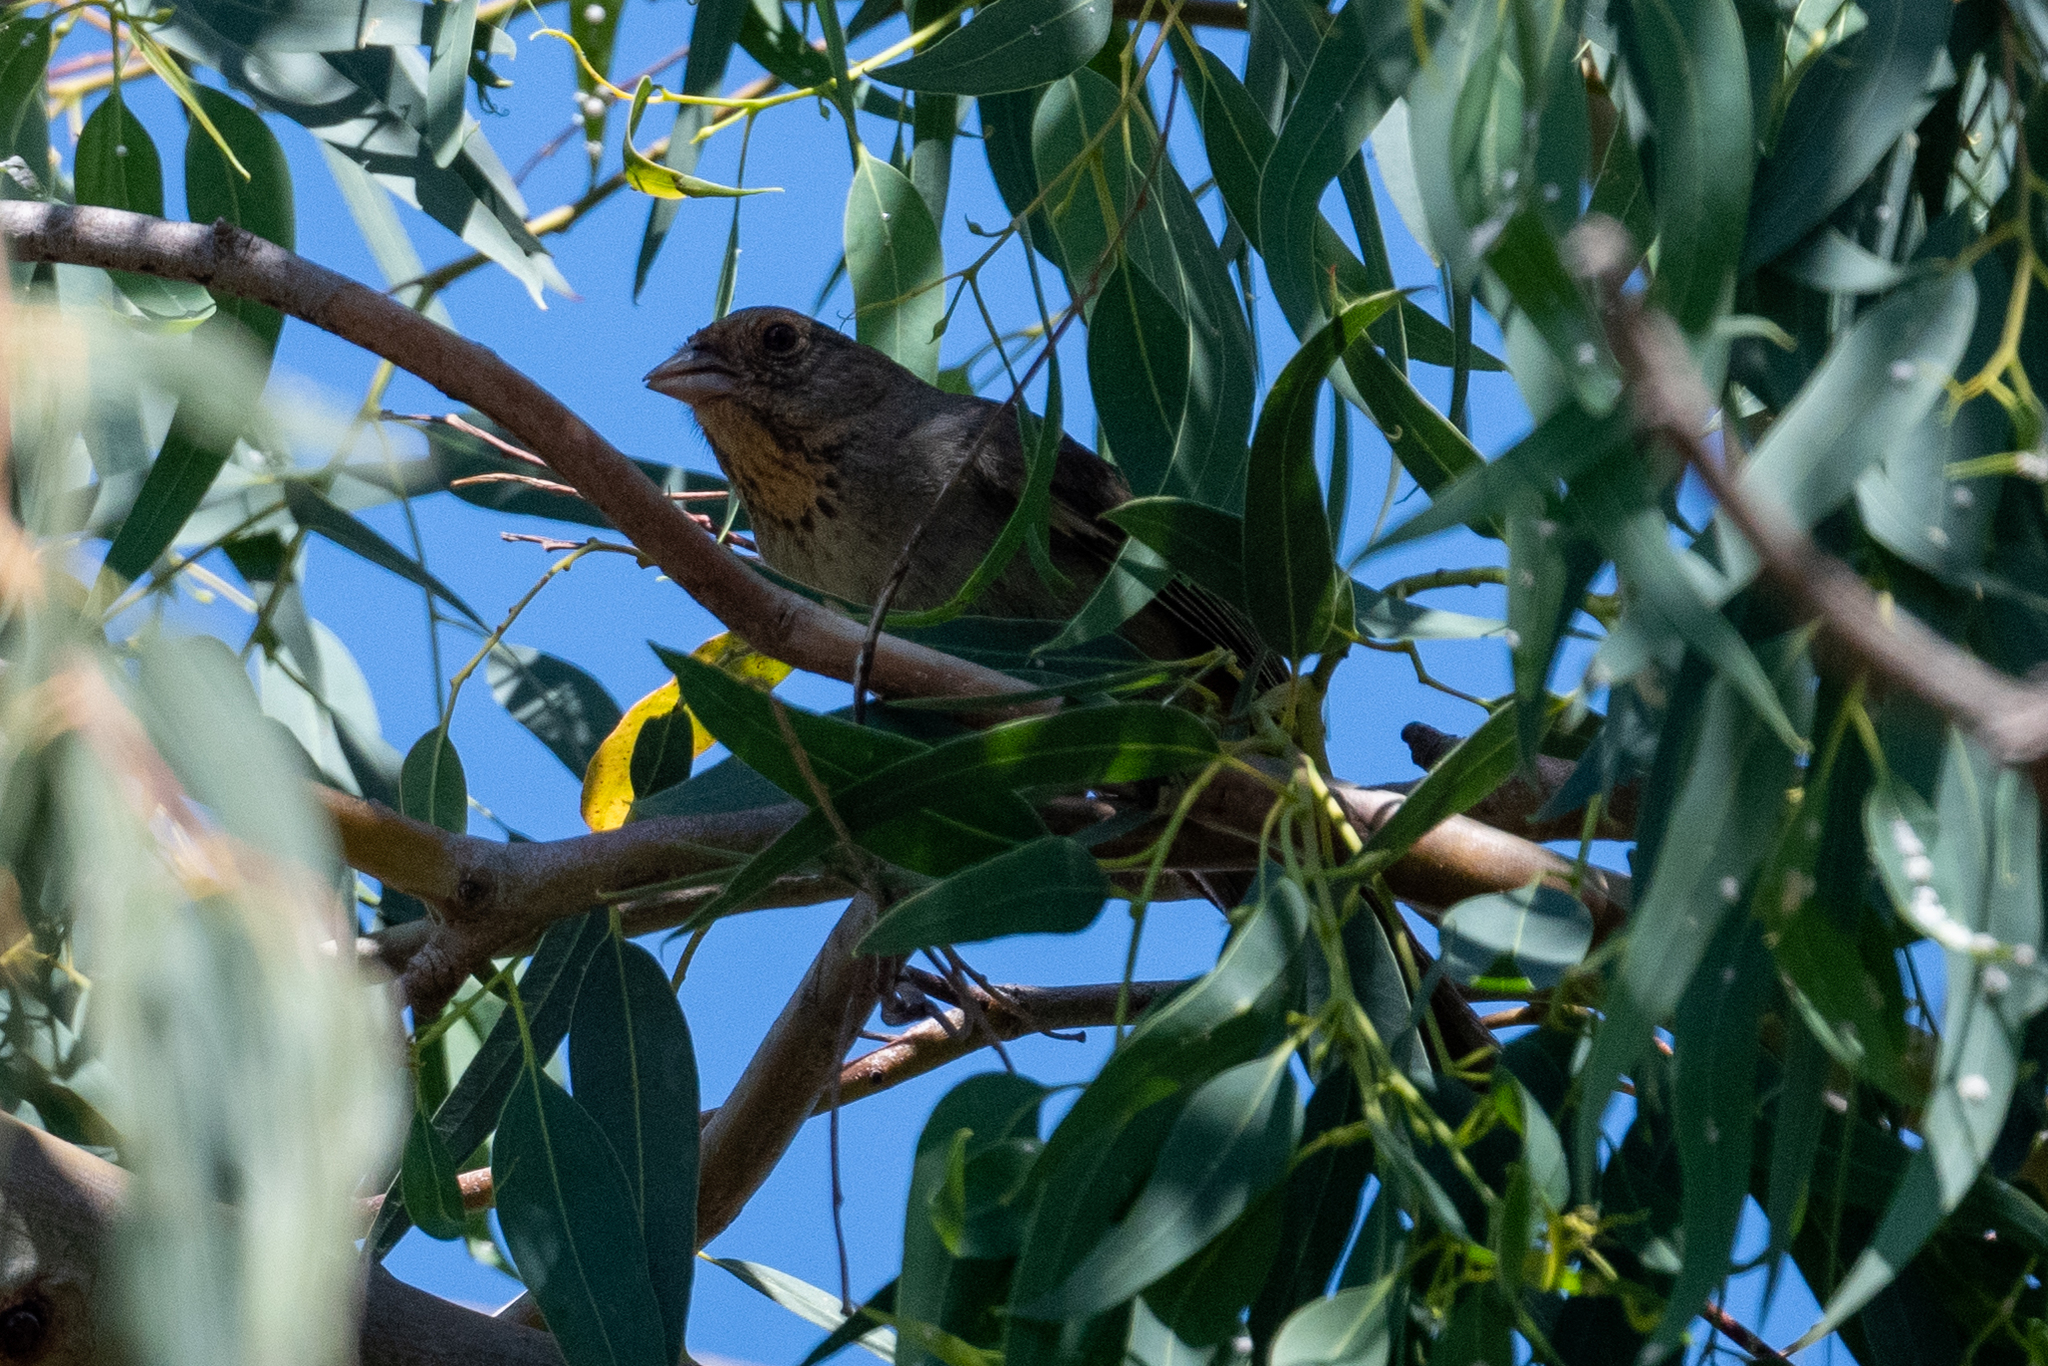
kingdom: Animalia
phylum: Chordata
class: Aves
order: Passeriformes
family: Passerellidae
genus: Melozone
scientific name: Melozone crissalis
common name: California towhee
